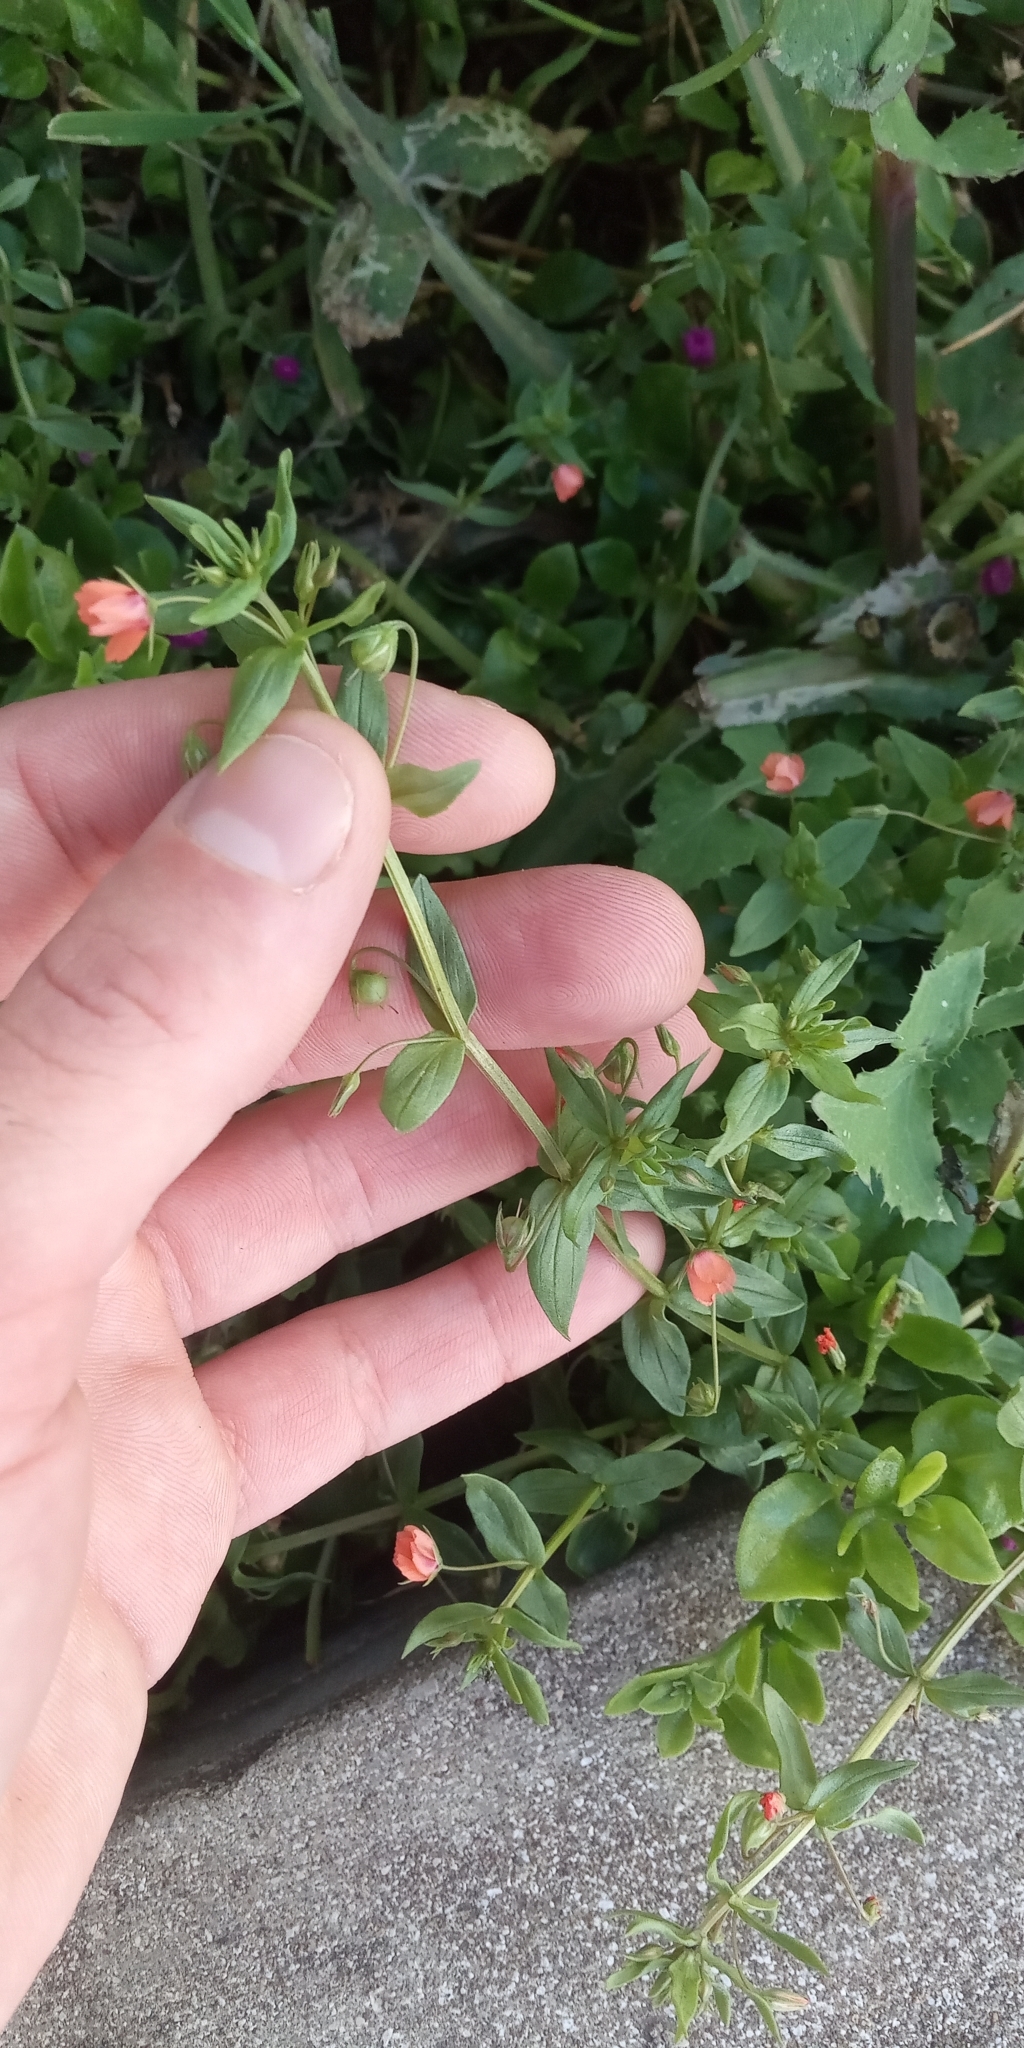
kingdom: Plantae
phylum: Tracheophyta
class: Magnoliopsida
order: Ericales
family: Primulaceae
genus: Lysimachia
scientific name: Lysimachia arvensis
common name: Scarlet pimpernel
